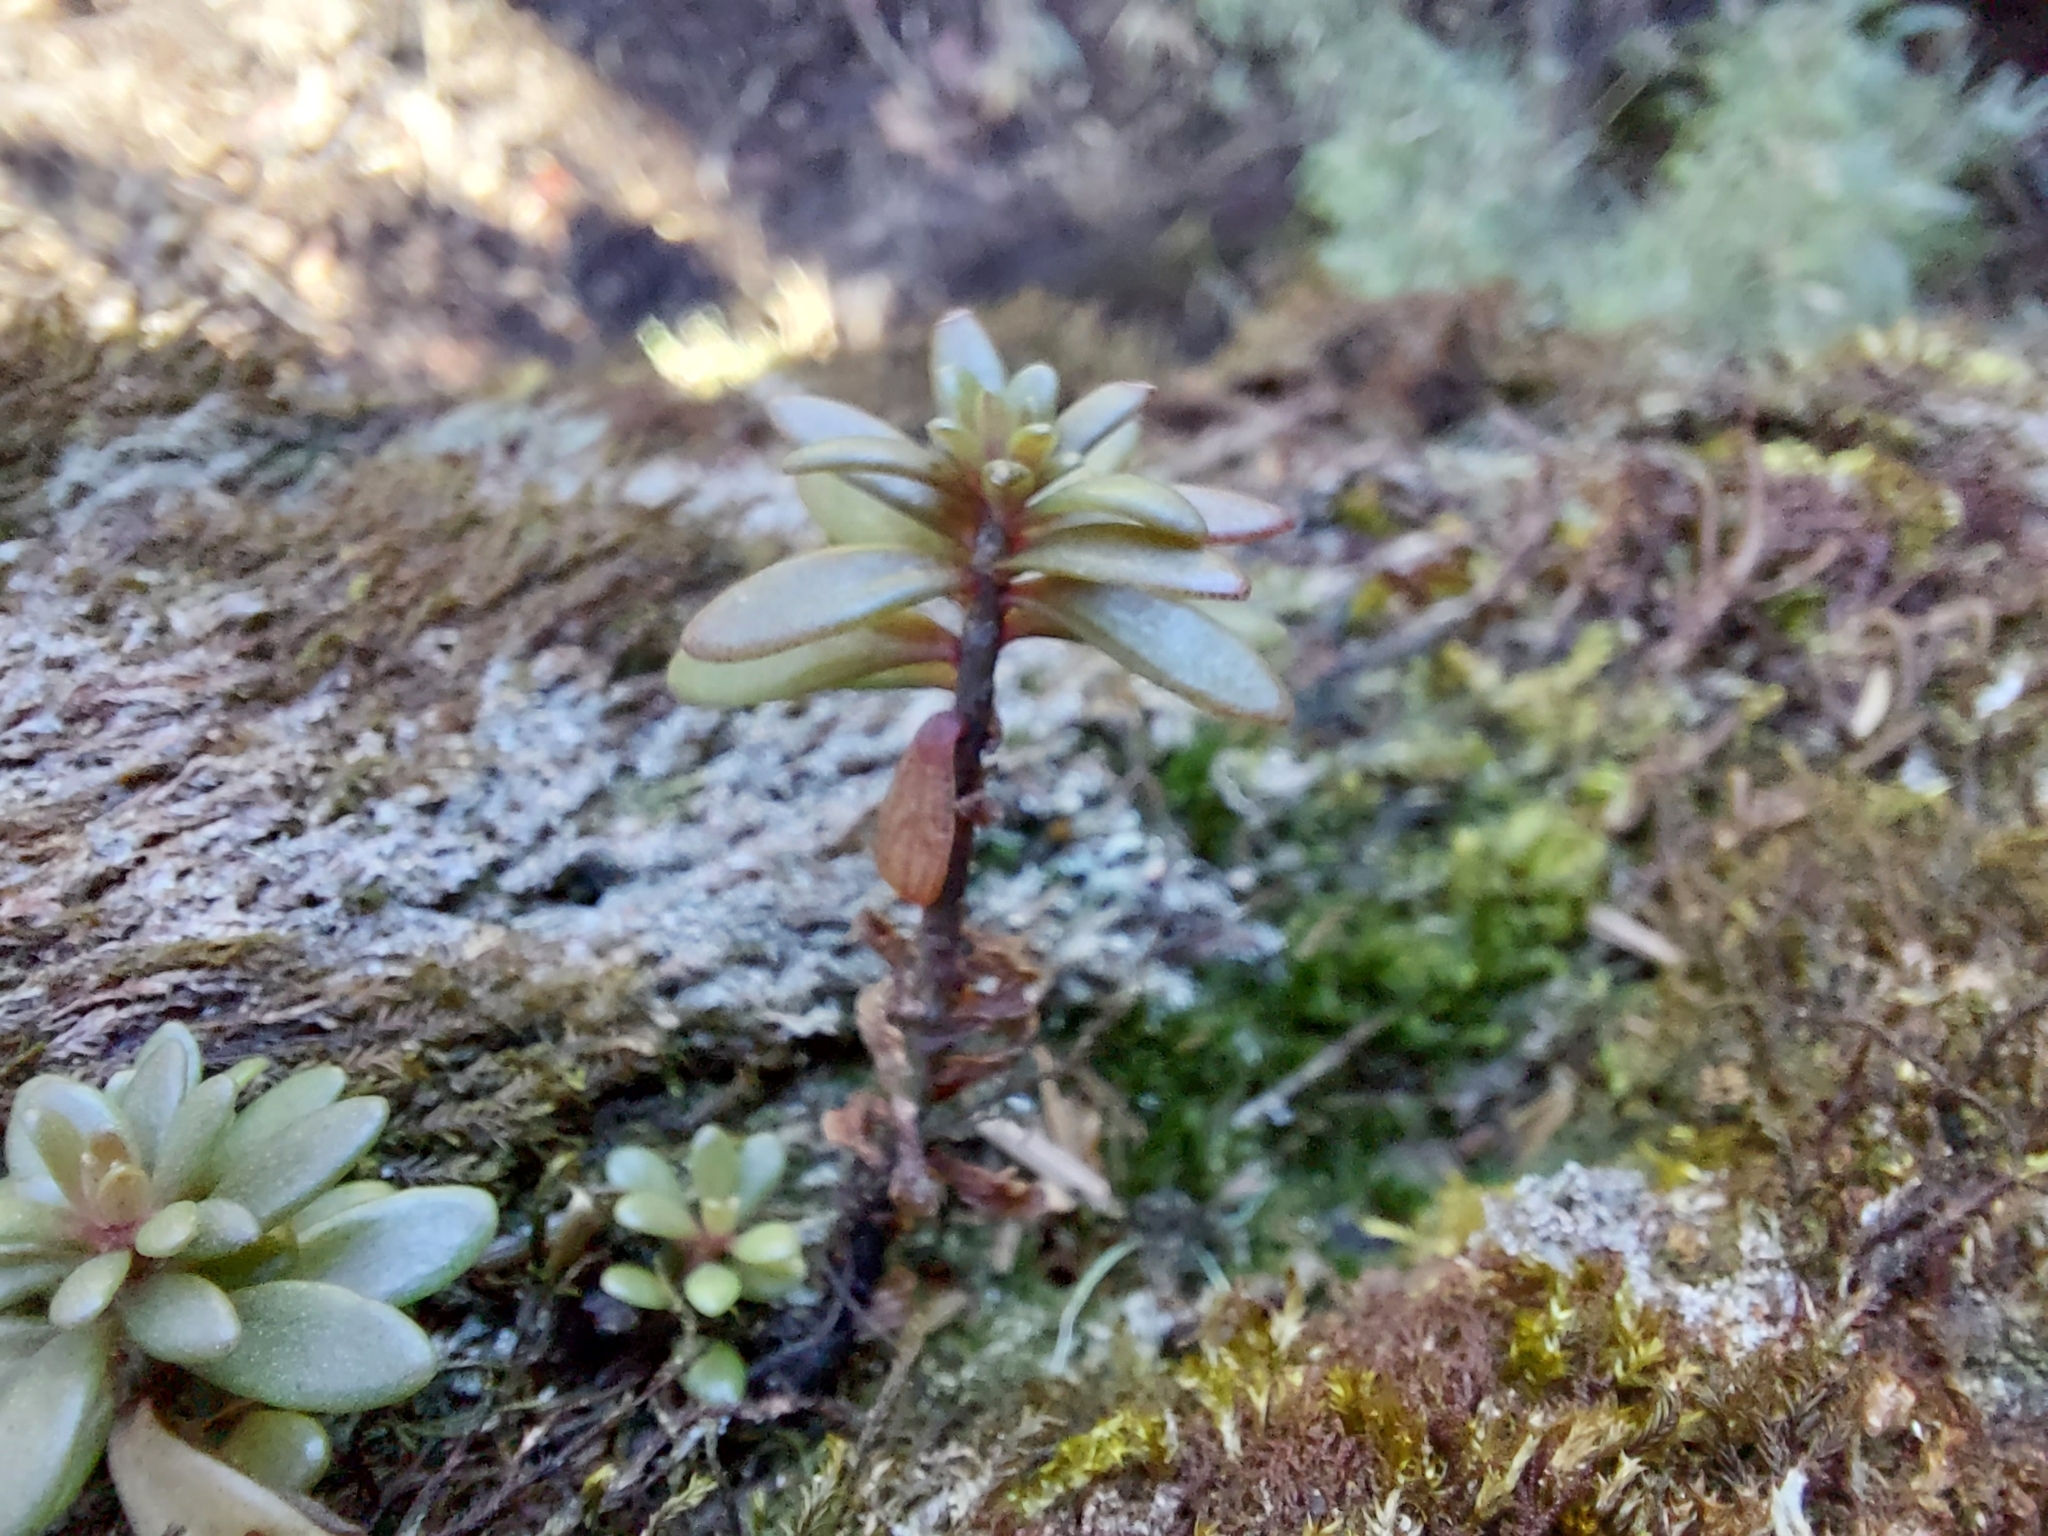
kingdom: Plantae
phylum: Tracheophyta
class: Magnoliopsida
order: Saxifragales
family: Crassulaceae
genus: Sedum
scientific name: Sedum microsepalum
